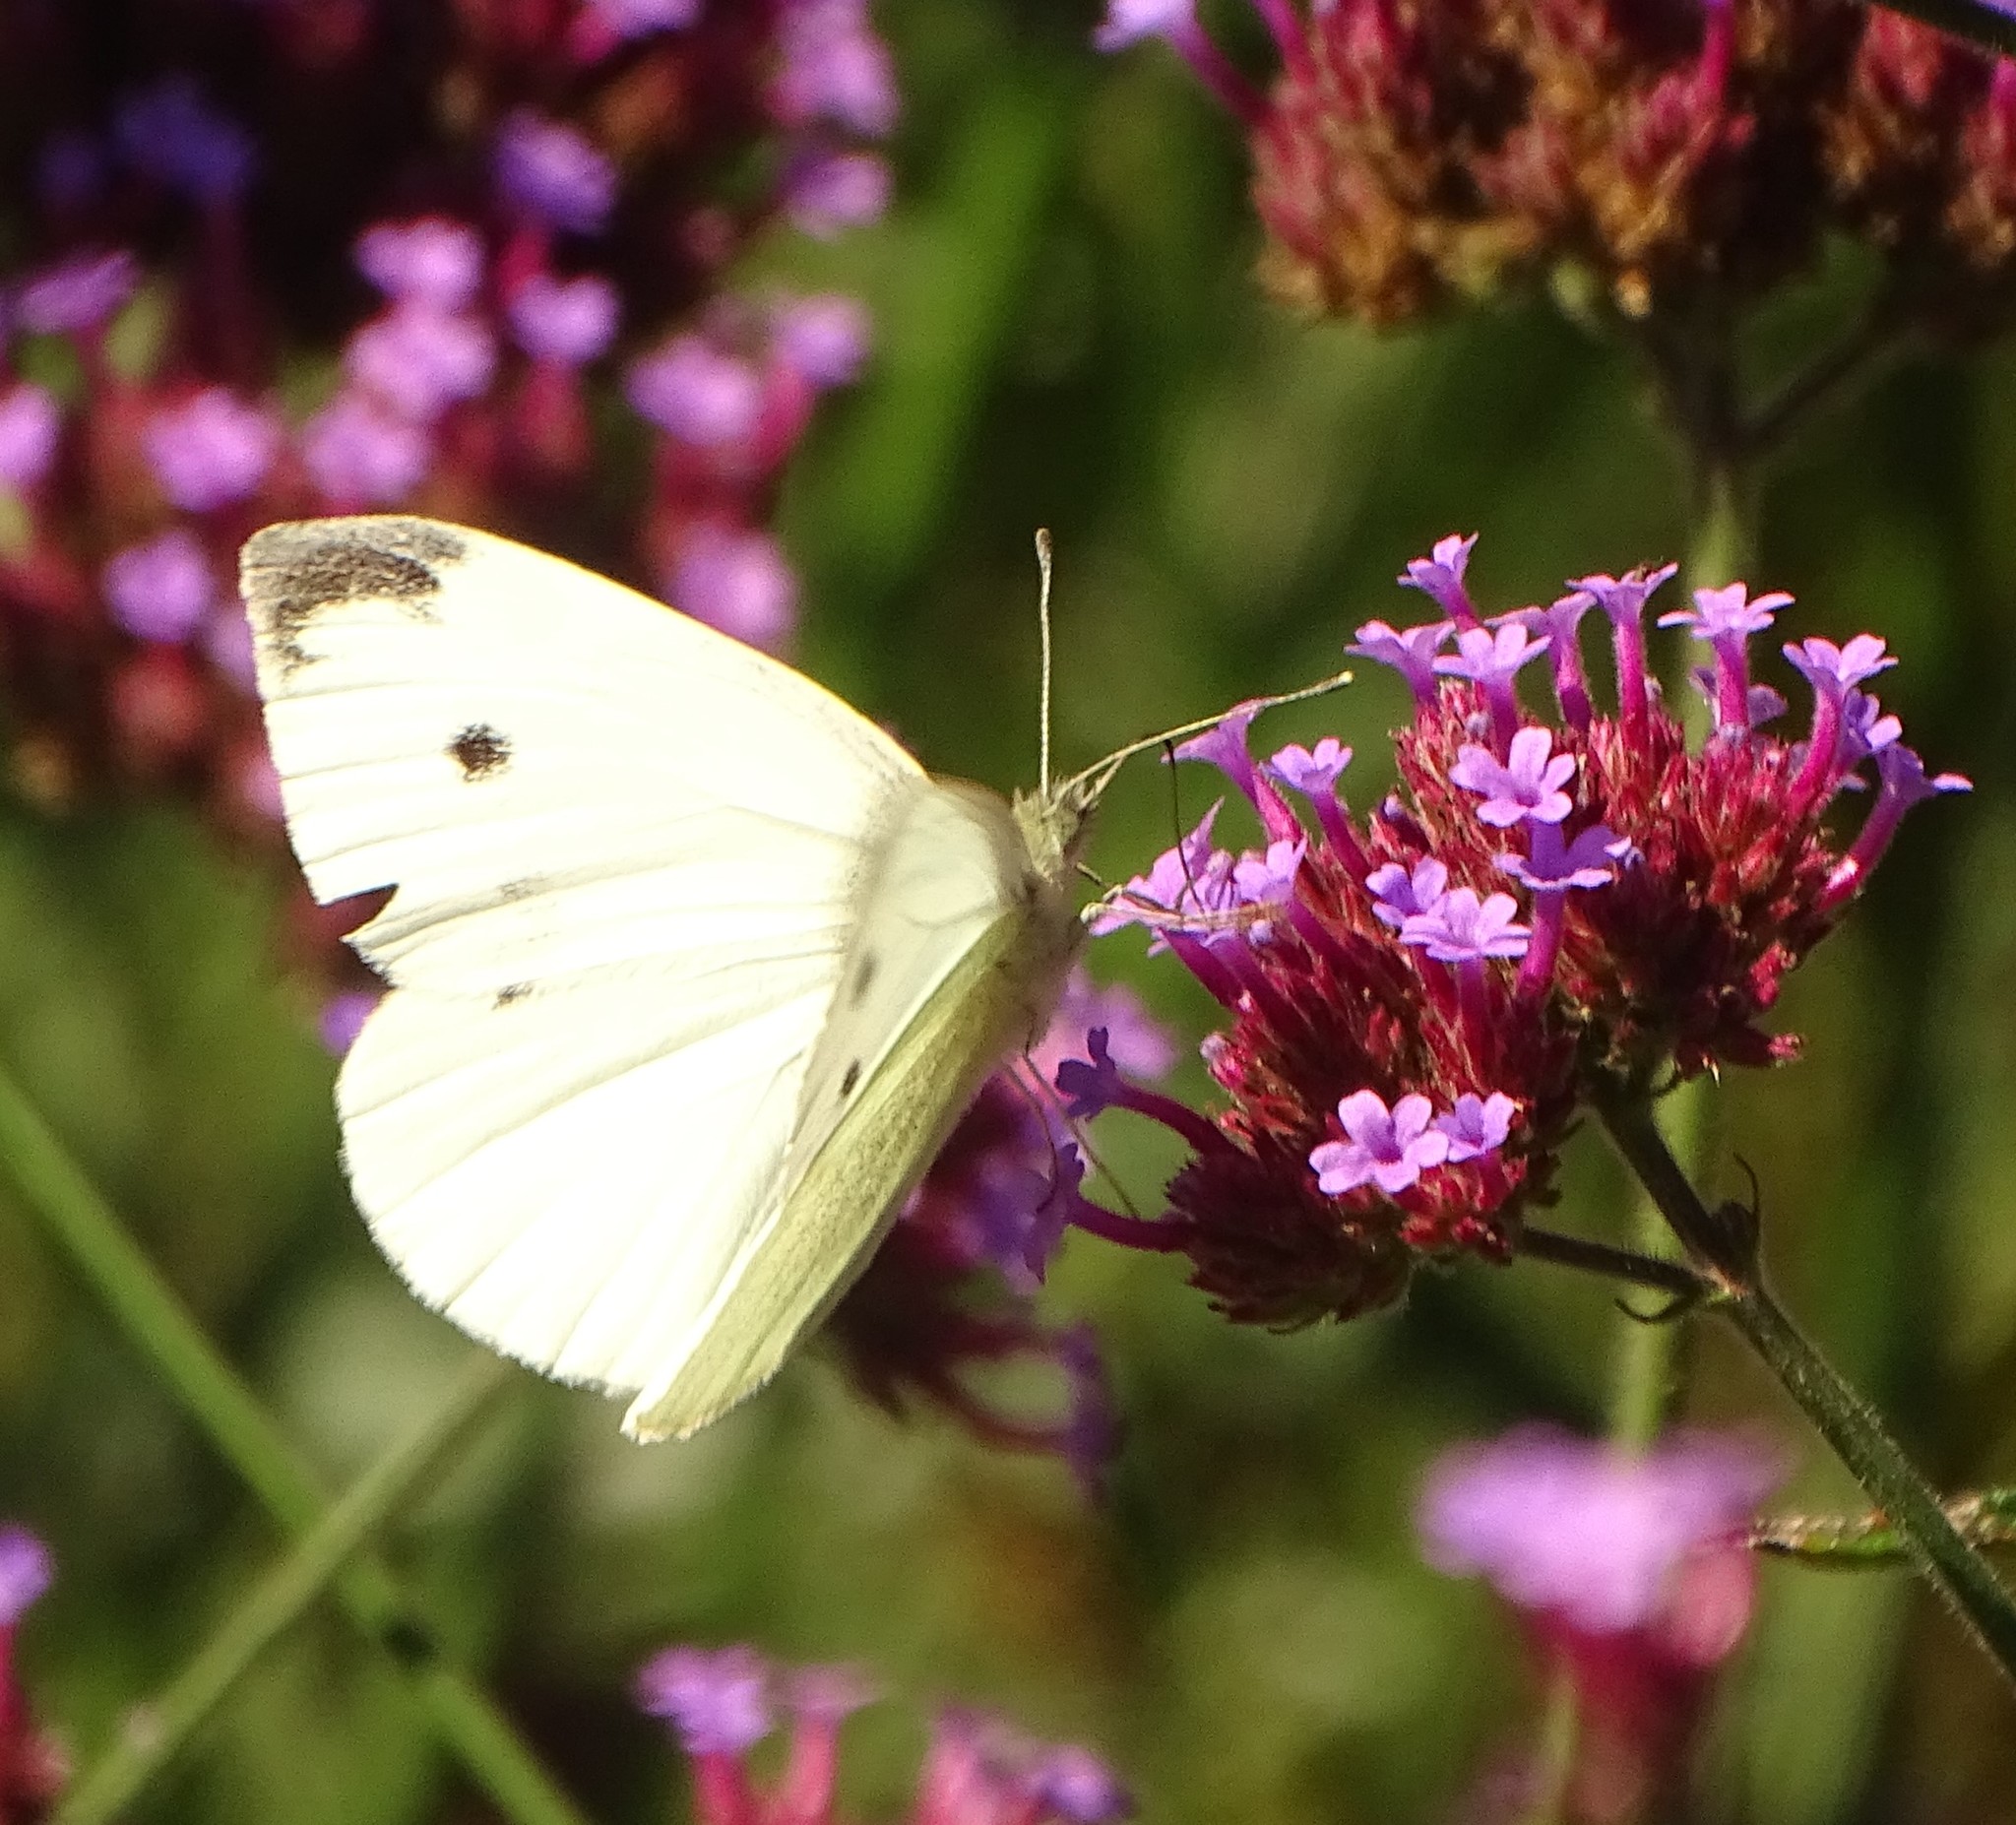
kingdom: Animalia
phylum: Arthropoda
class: Insecta
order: Lepidoptera
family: Pieridae
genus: Pieris
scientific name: Pieris rapae
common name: Small white
